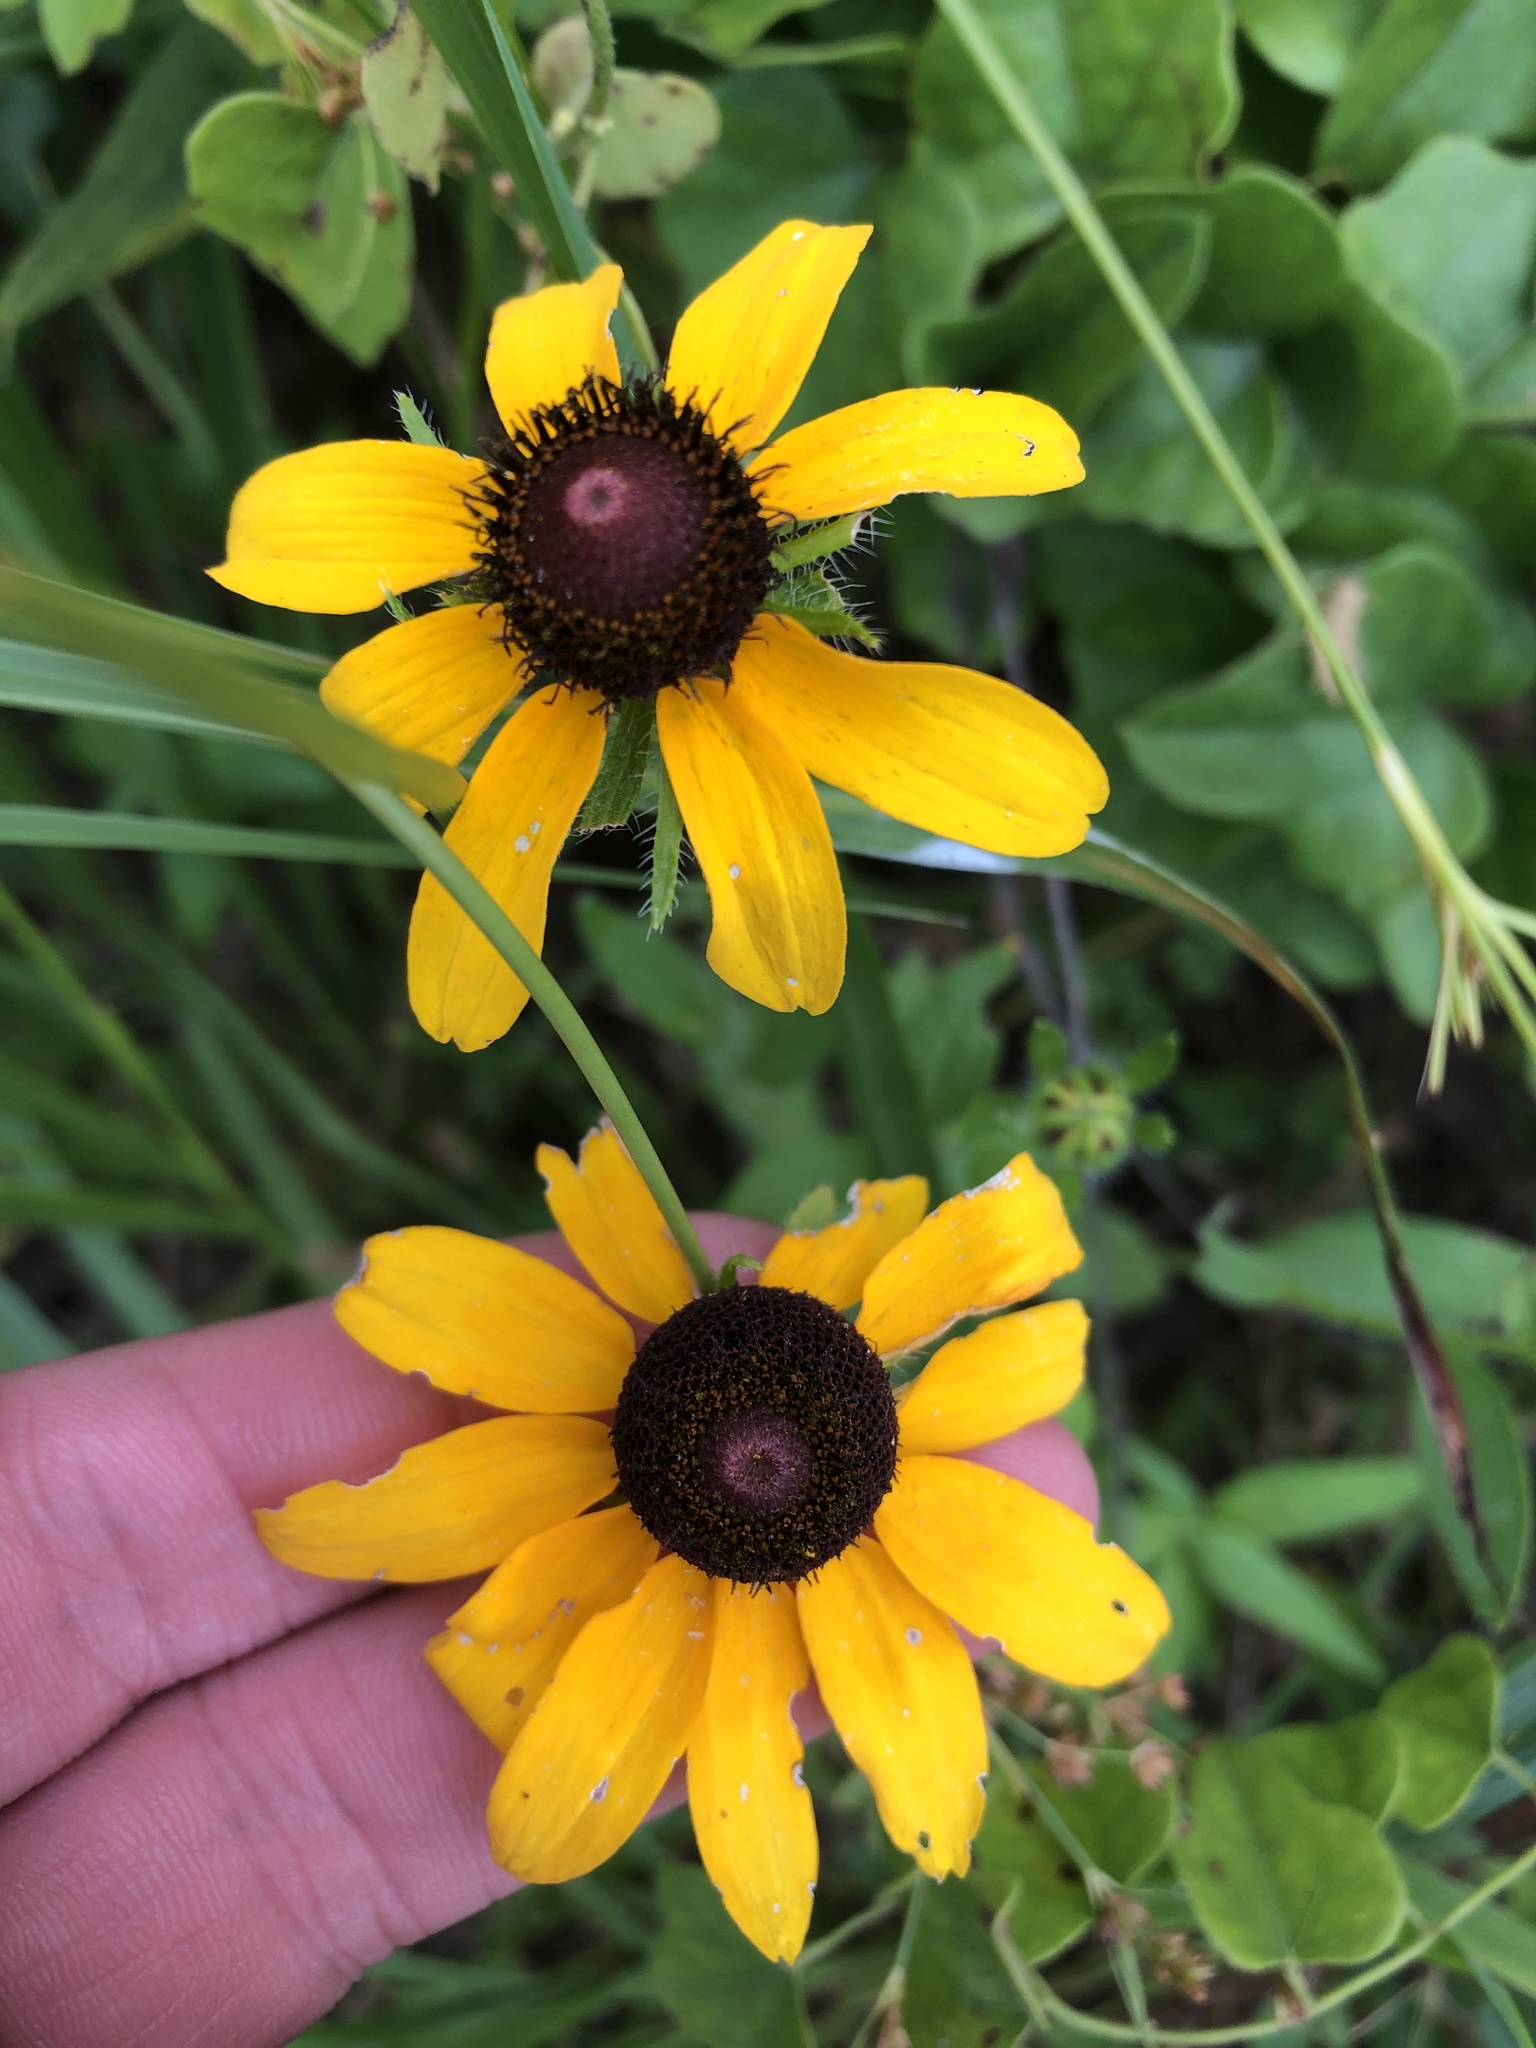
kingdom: Plantae
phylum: Tracheophyta
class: Magnoliopsida
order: Asterales
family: Asteraceae
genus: Rudbeckia
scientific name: Rudbeckia hirta
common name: Black-eyed-susan
